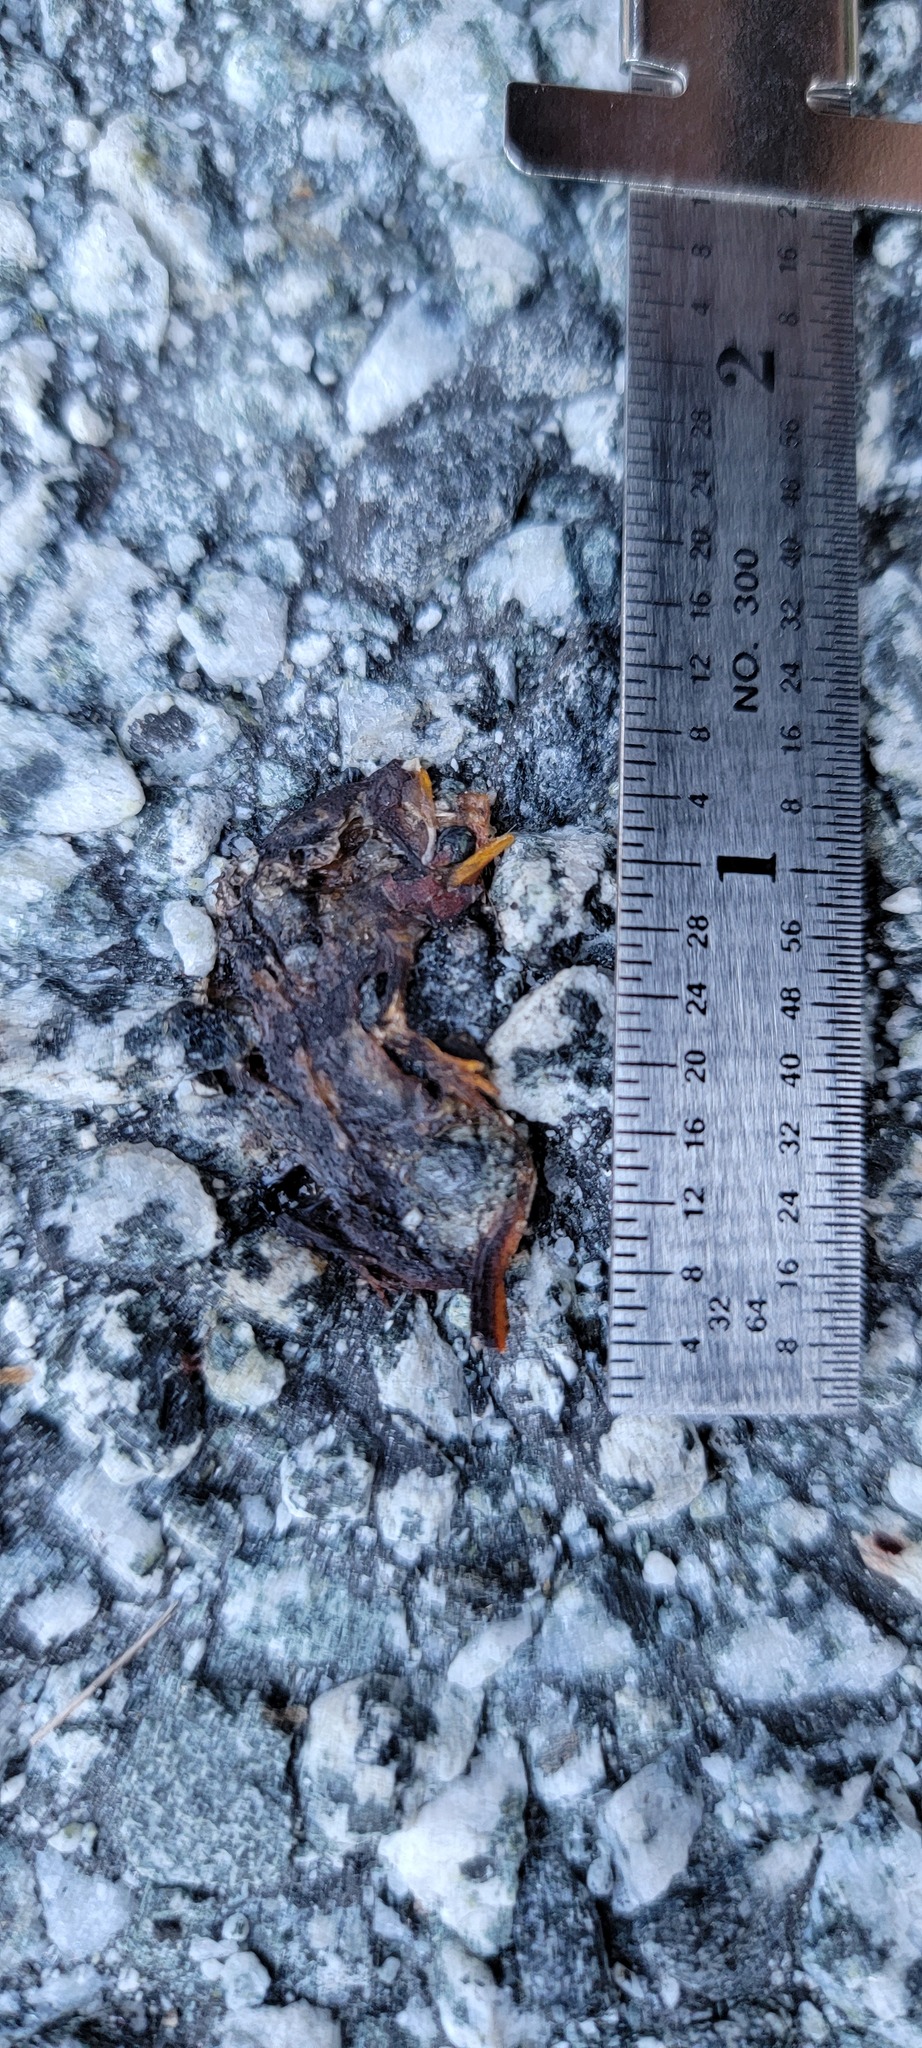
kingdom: Animalia
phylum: Chordata
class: Amphibia
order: Caudata
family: Salamandridae
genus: Taricha
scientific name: Taricha
